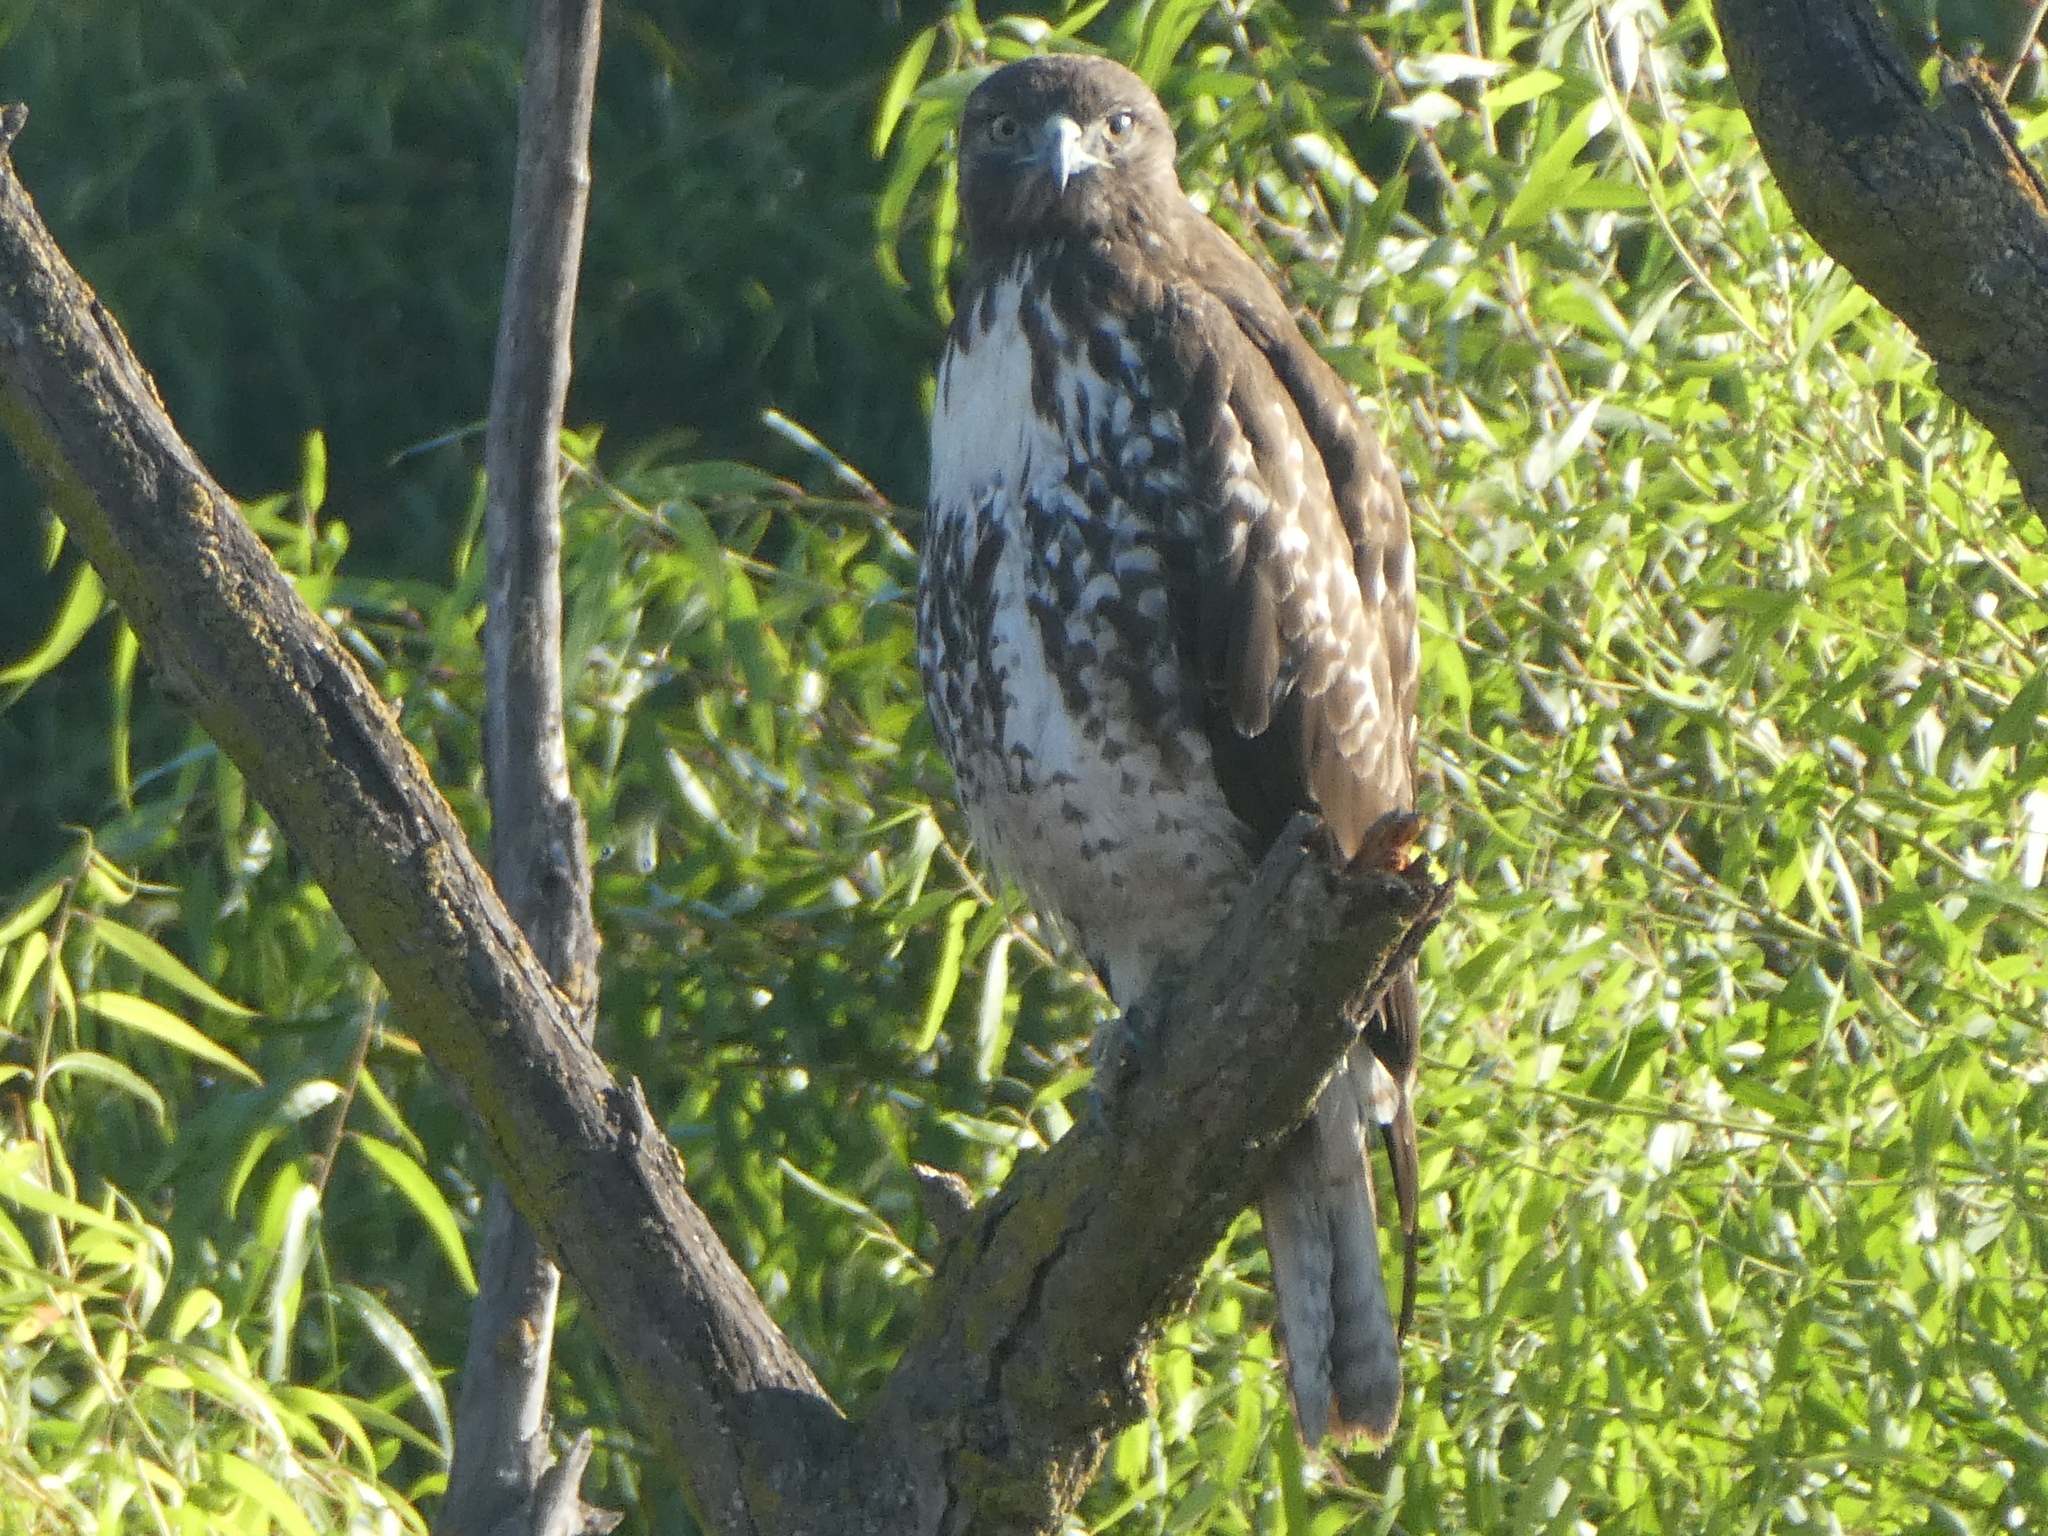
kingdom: Animalia
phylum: Chordata
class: Aves
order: Accipitriformes
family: Accipitridae
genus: Buteo
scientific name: Buteo jamaicensis
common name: Red-tailed hawk
